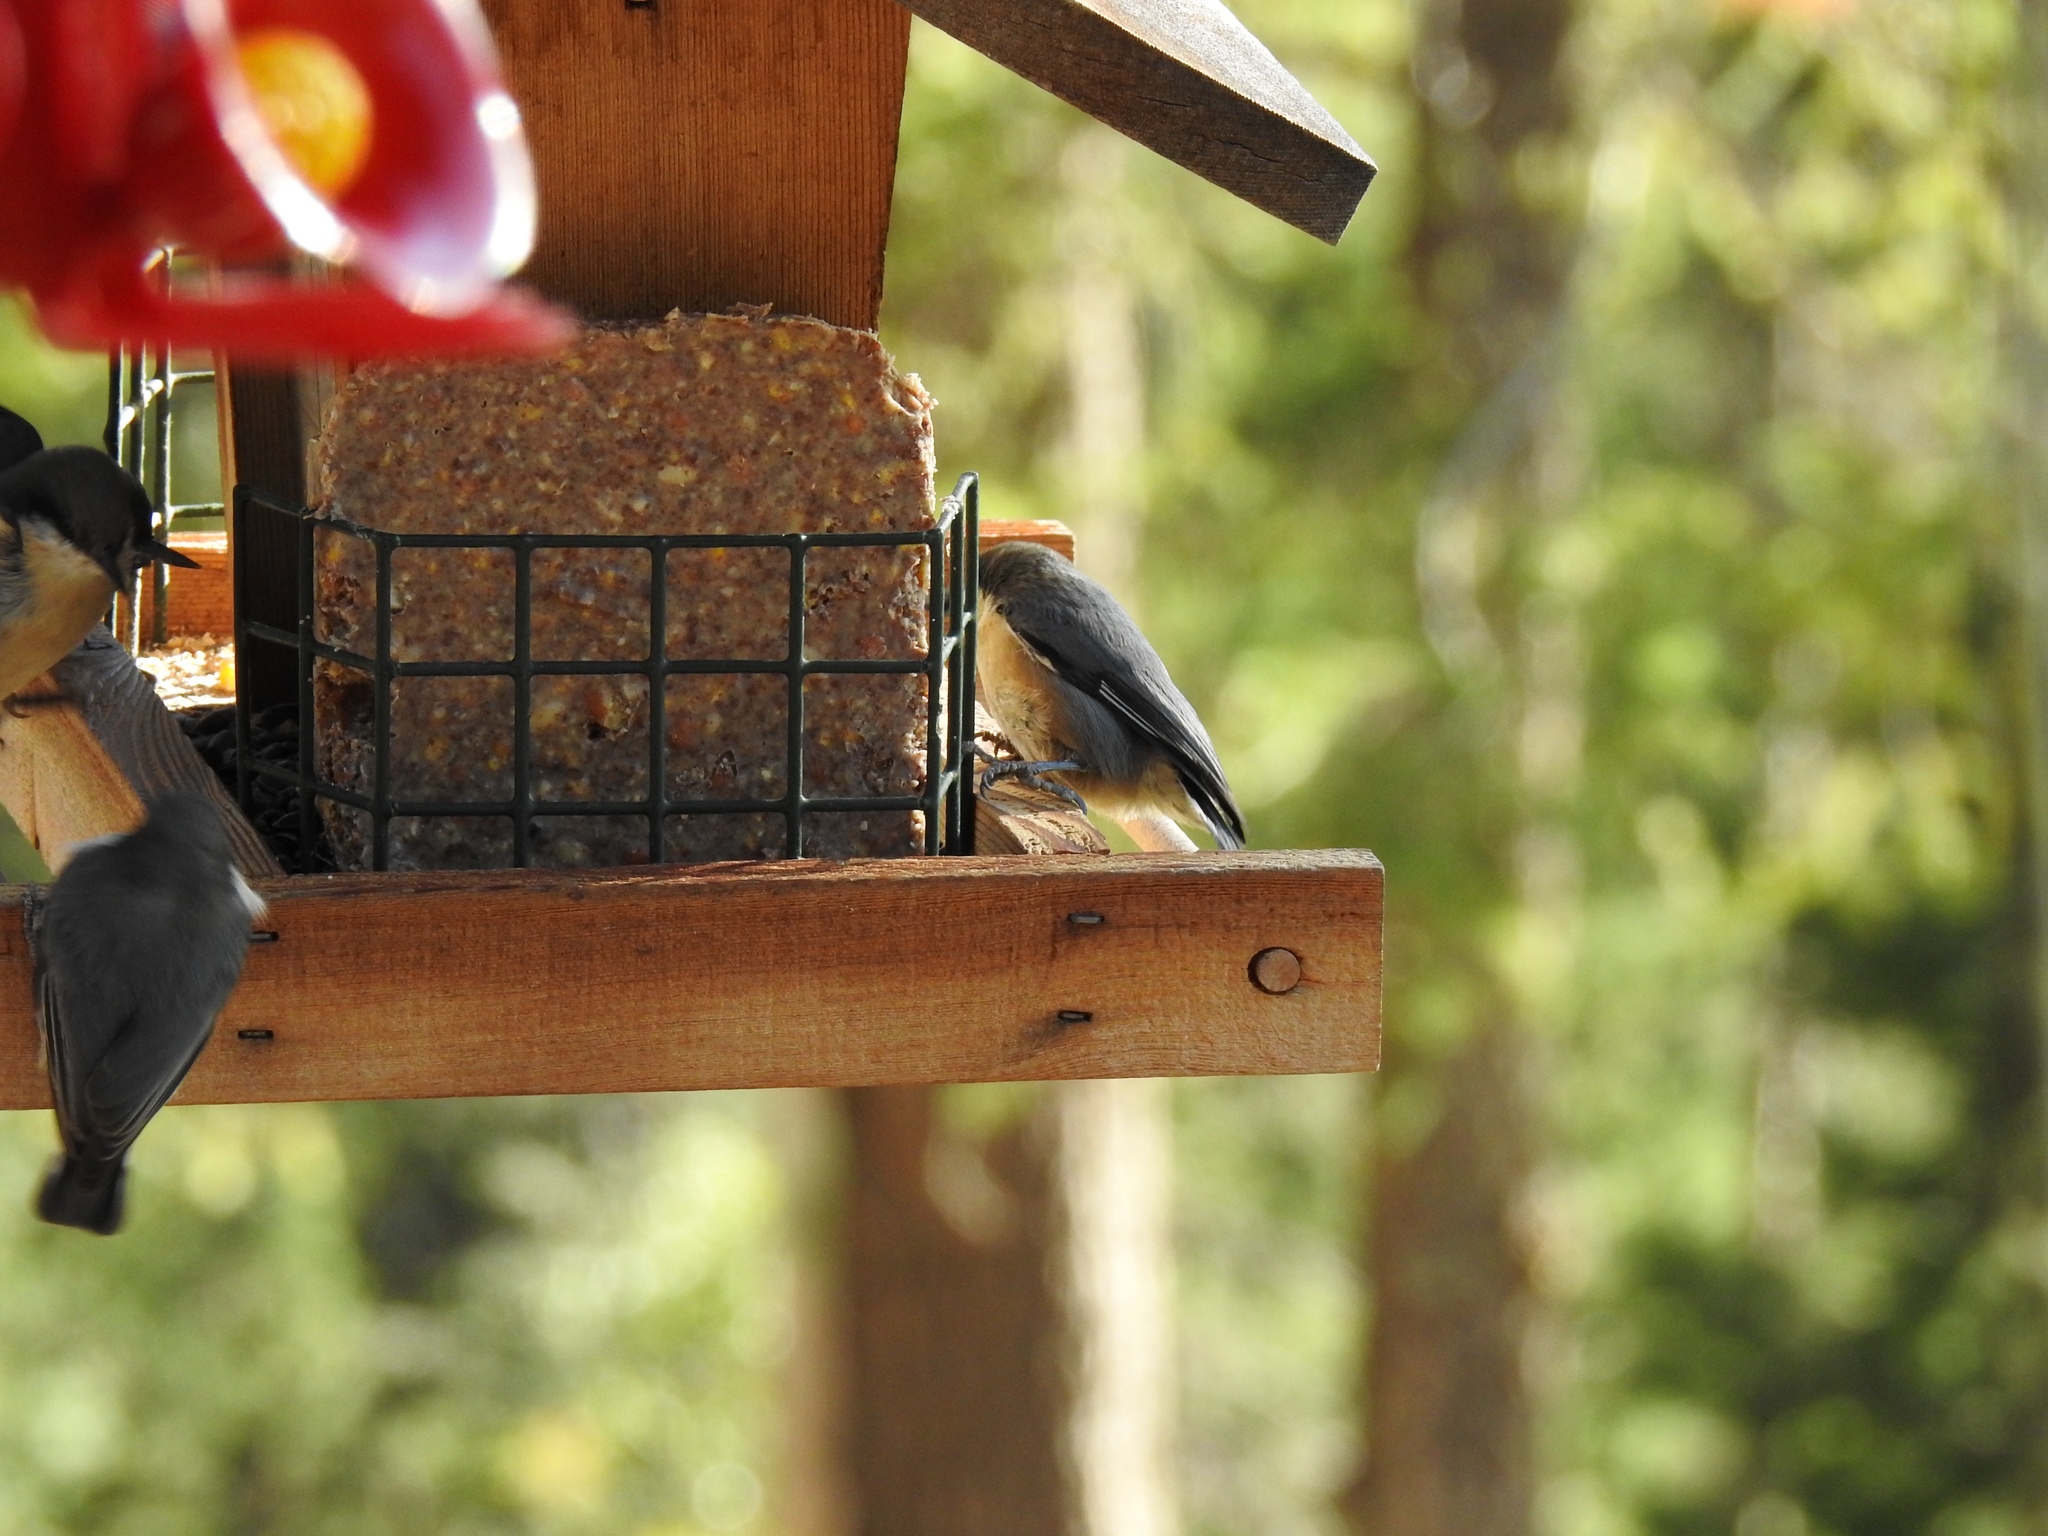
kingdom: Animalia
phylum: Chordata
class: Aves
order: Passeriformes
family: Sittidae
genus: Sitta
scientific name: Sitta pygmaea
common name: Pygmy nuthatch
